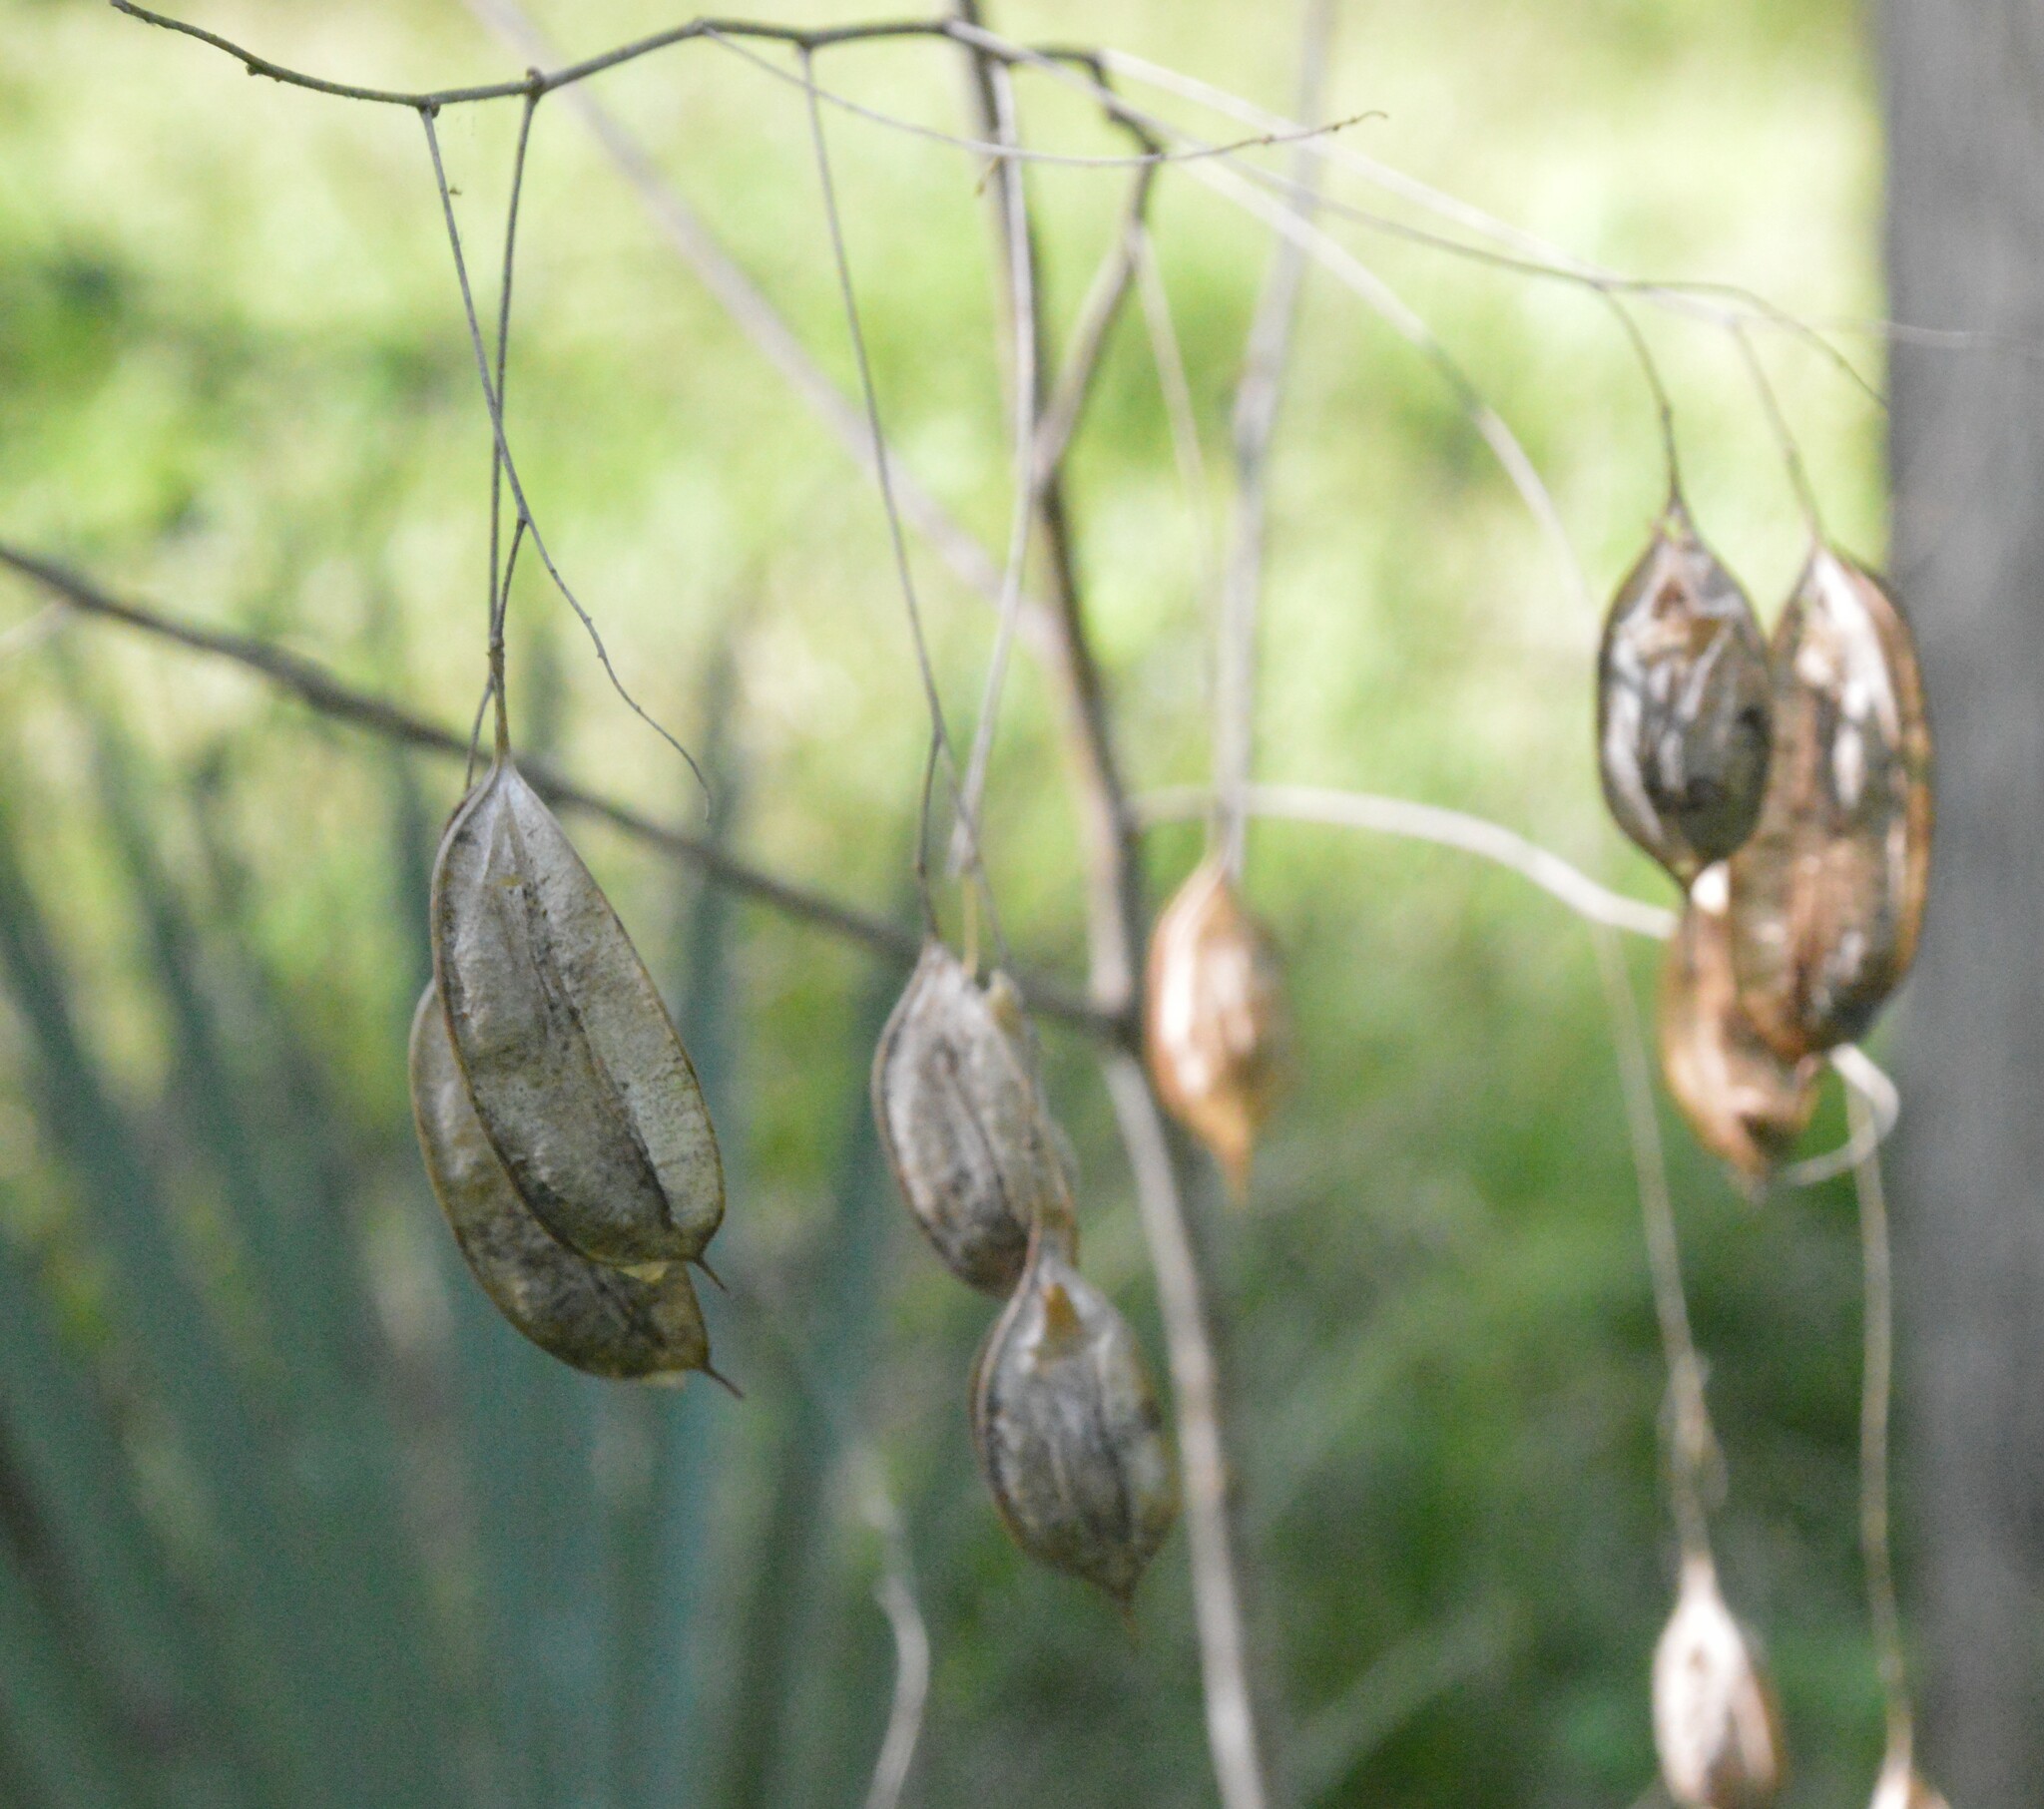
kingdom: Plantae
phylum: Tracheophyta
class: Magnoliopsida
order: Fabales
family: Fabaceae
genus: Sesbania
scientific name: Sesbania vesicaria
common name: Bagpod
